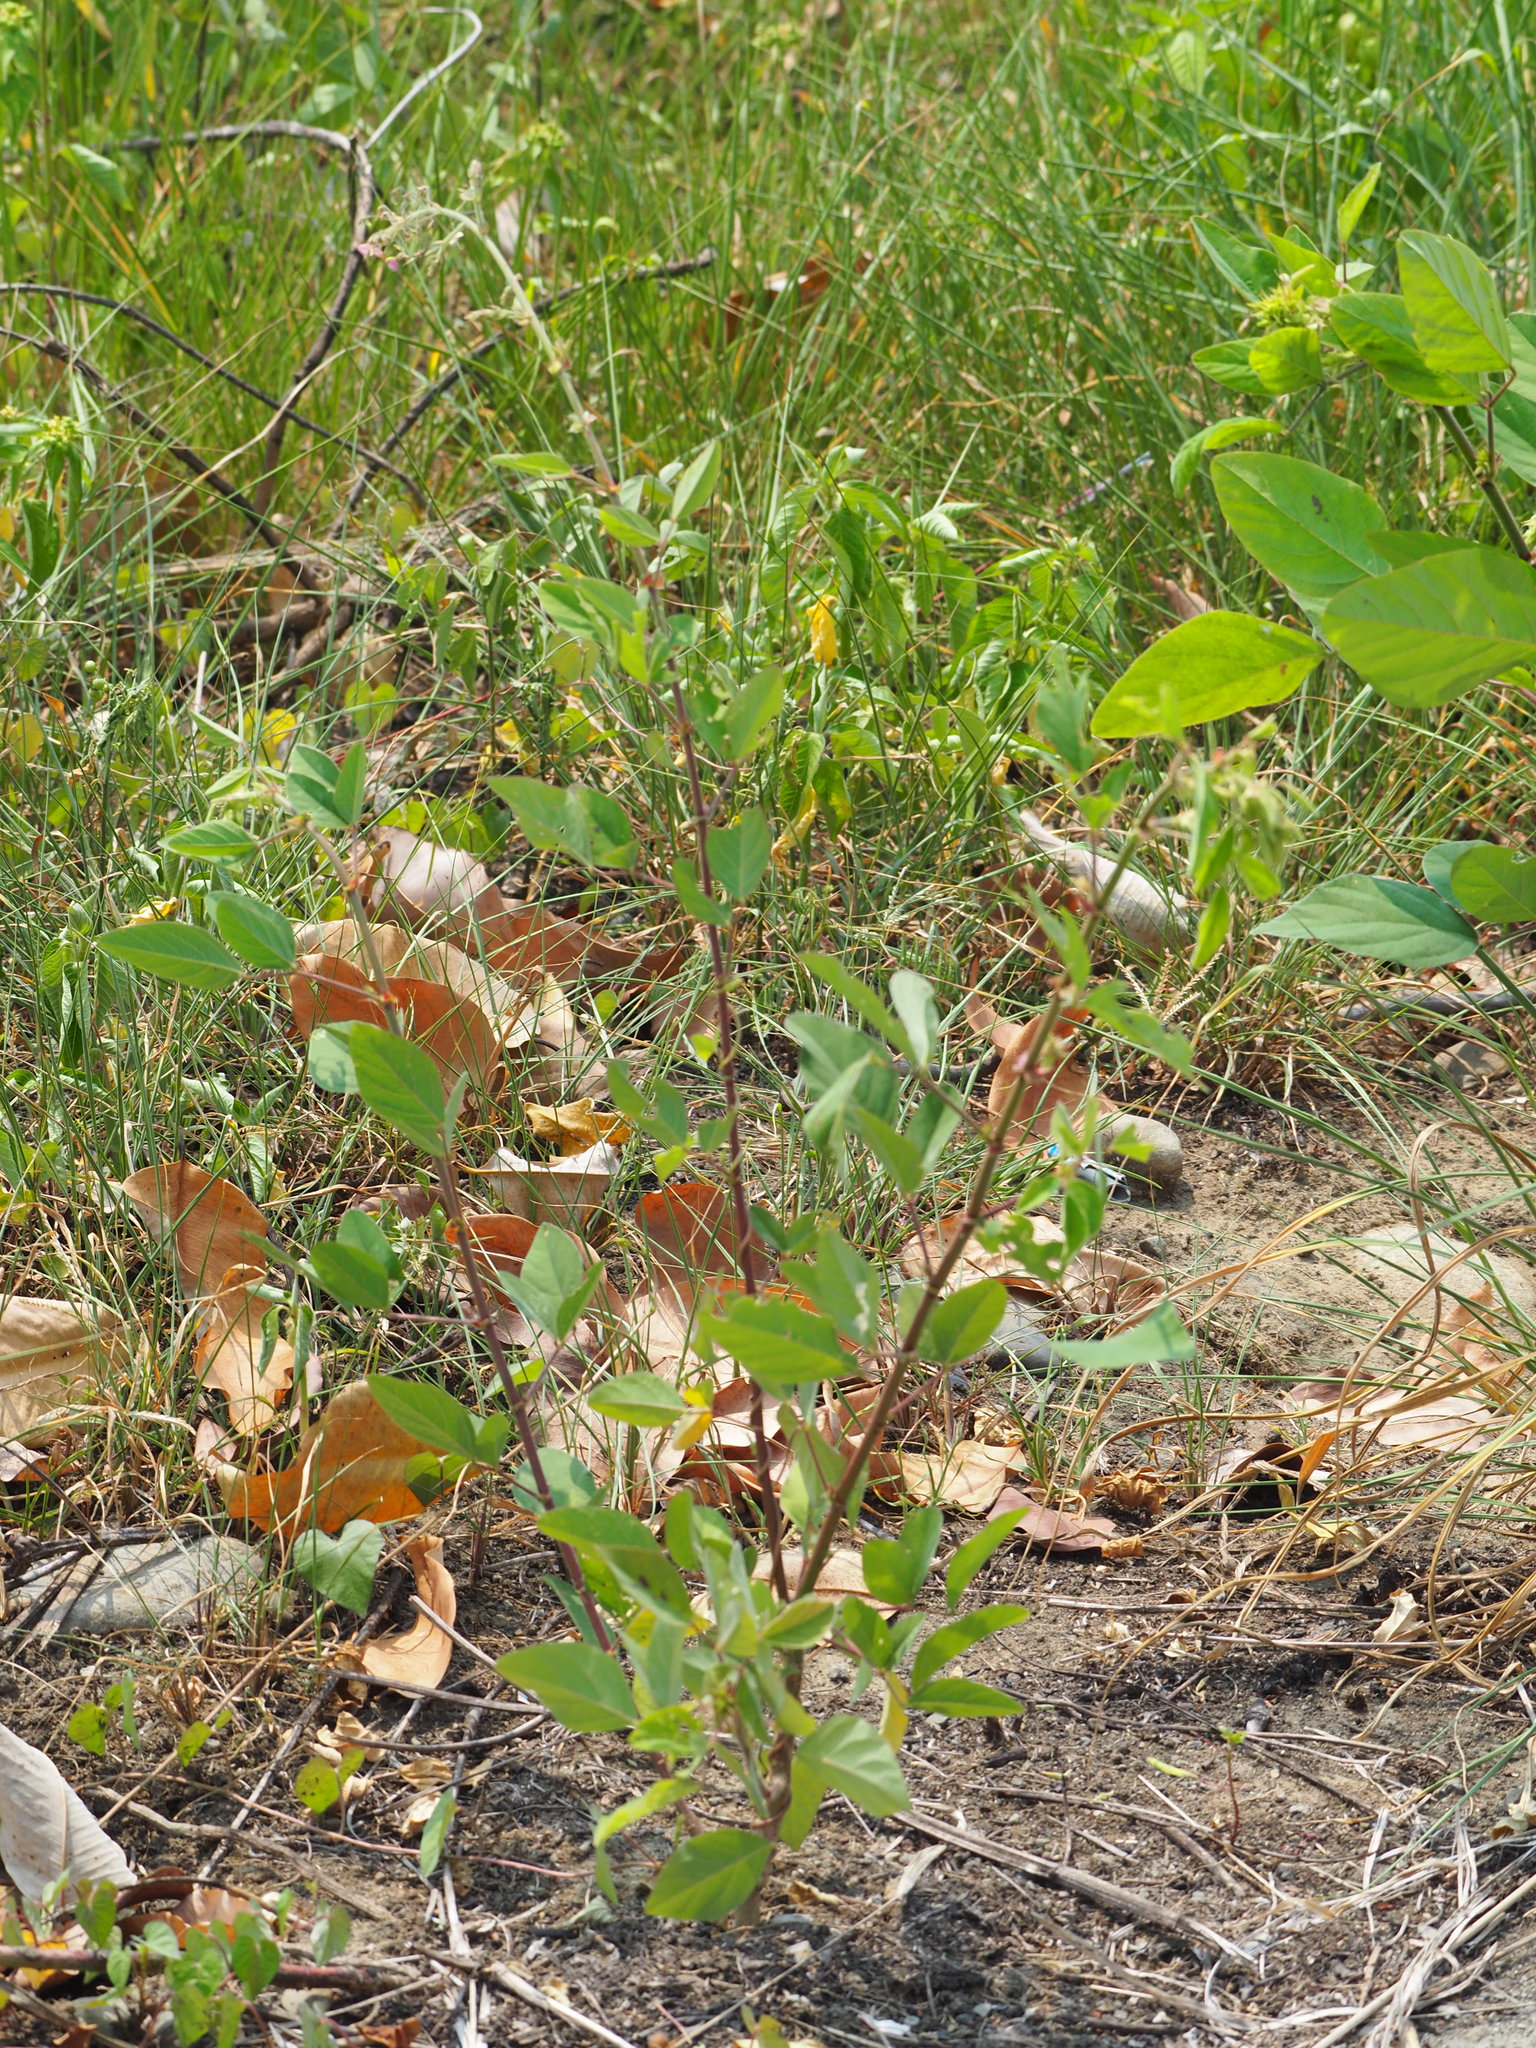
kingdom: Plantae
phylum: Tracheophyta
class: Magnoliopsida
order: Fabales
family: Fabaceae
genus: Desmodium
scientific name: Desmodium tortuosum
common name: Dixie ticktrefoil
